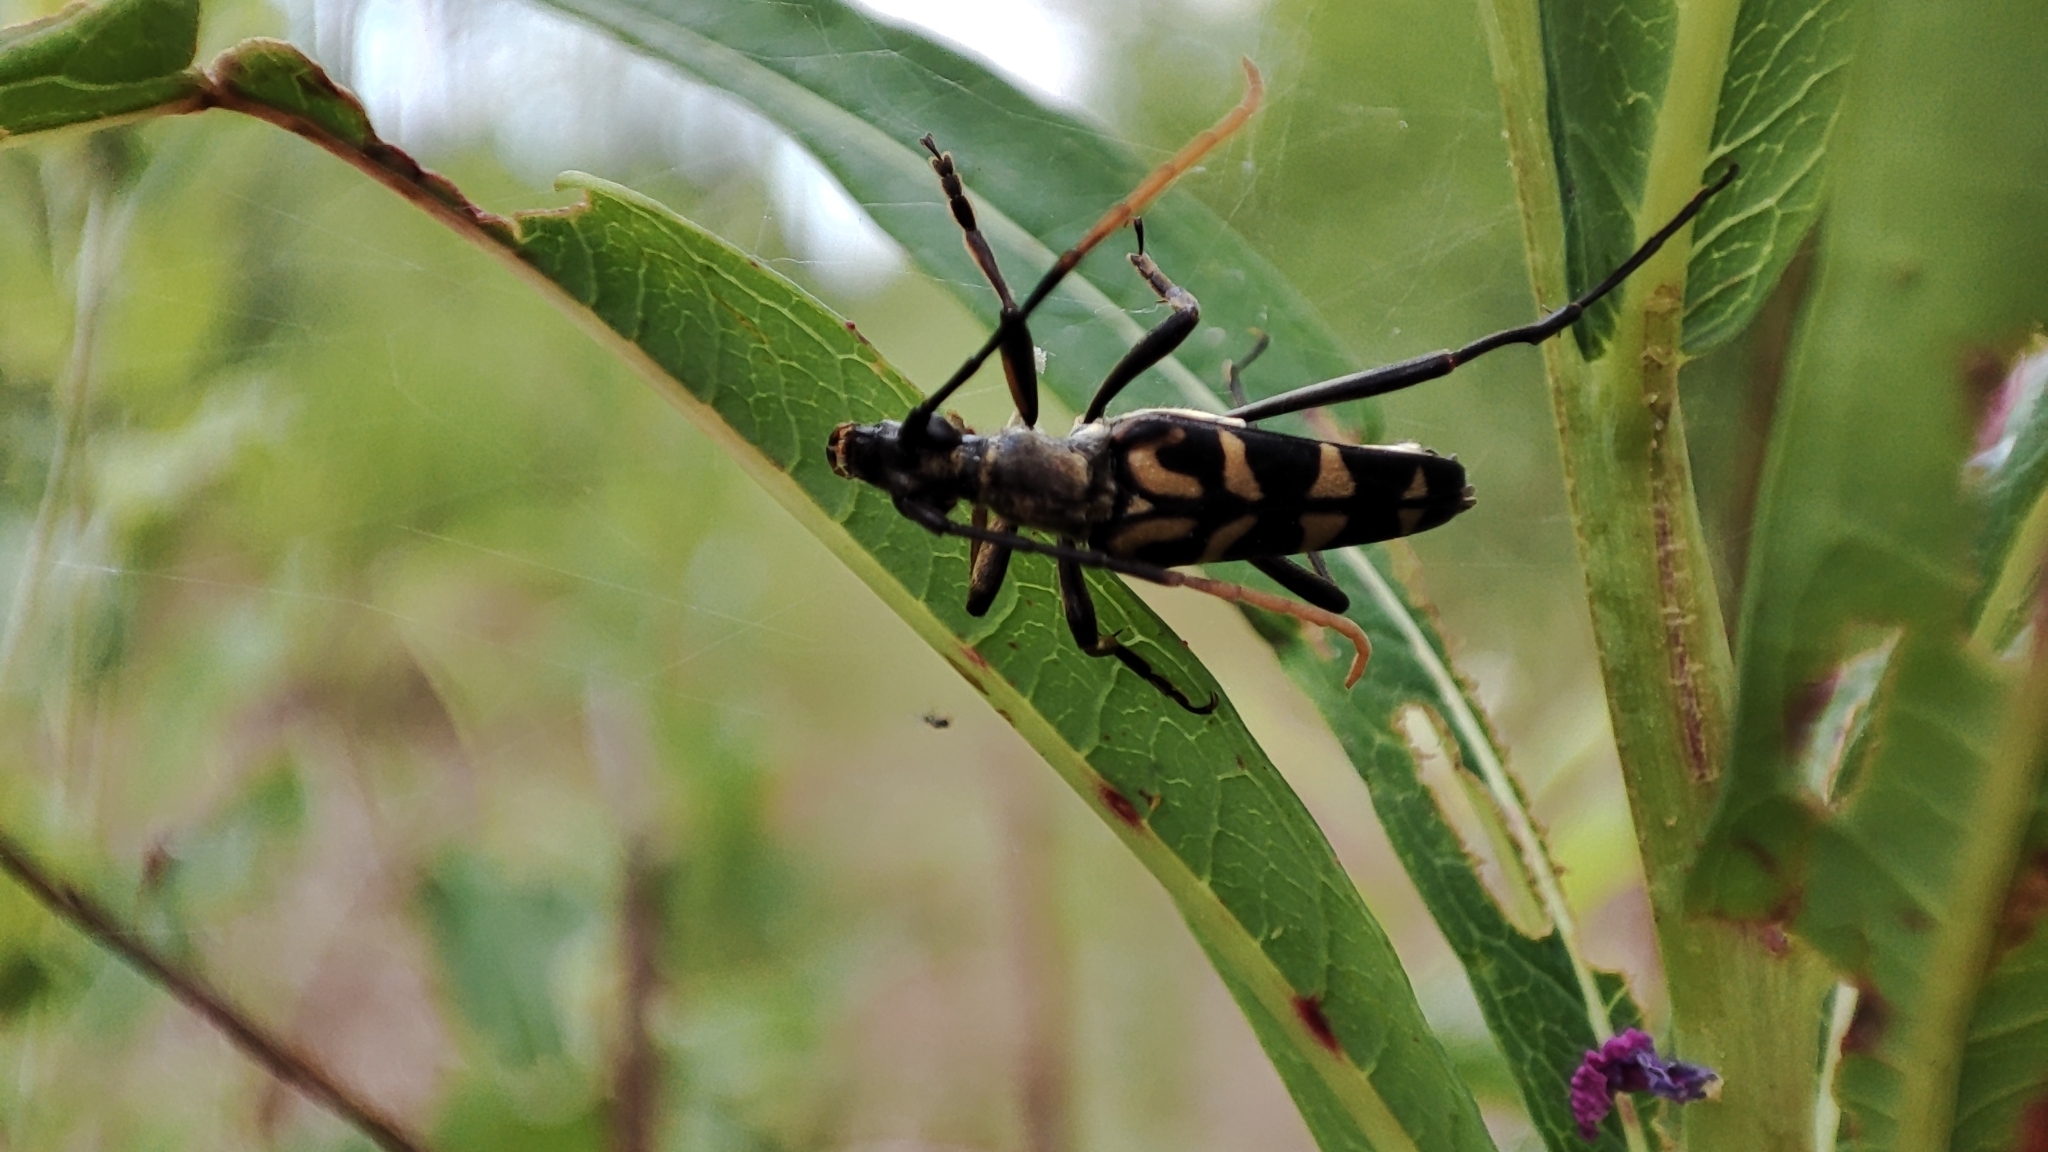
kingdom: Animalia
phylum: Arthropoda
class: Insecta
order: Coleoptera
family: Cerambycidae
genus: Leptura
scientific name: Leptura annularis
